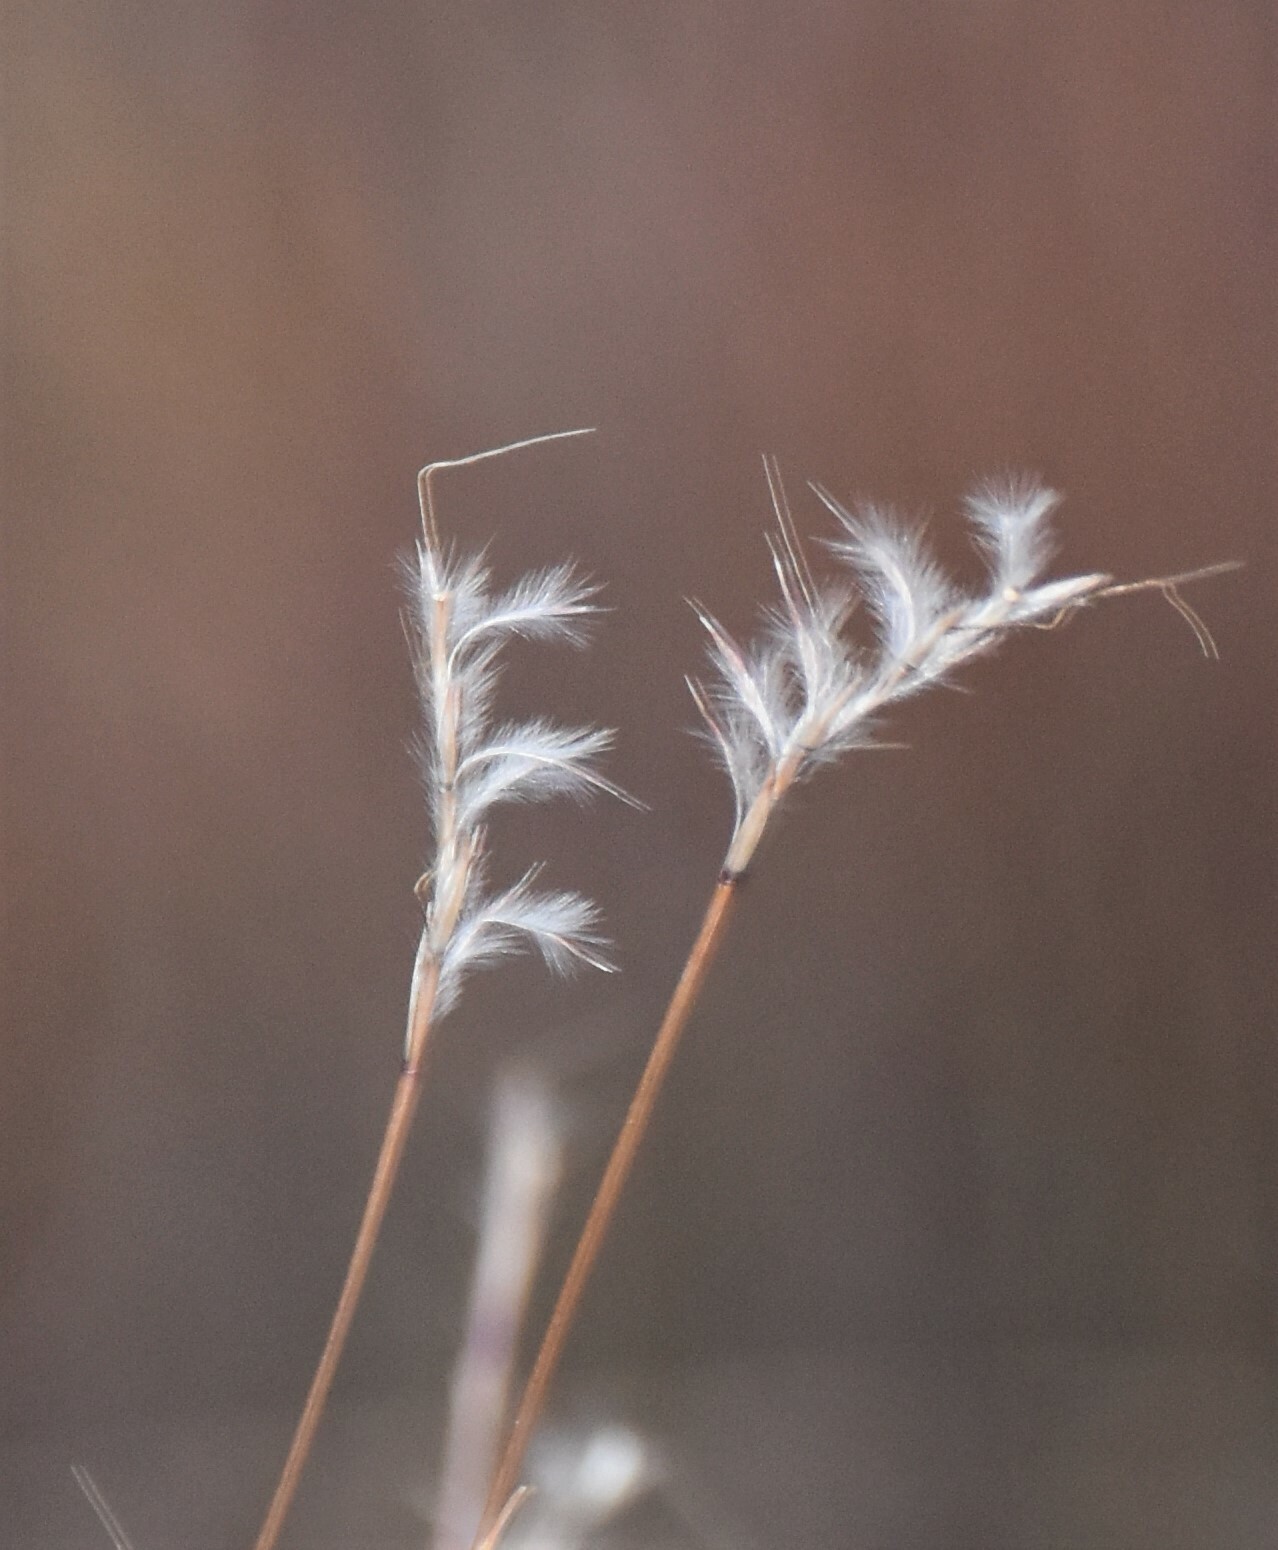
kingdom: Plantae
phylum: Tracheophyta
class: Liliopsida
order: Poales
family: Poaceae
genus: Schizachyrium
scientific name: Schizachyrium scoparium
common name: Little bluestem
